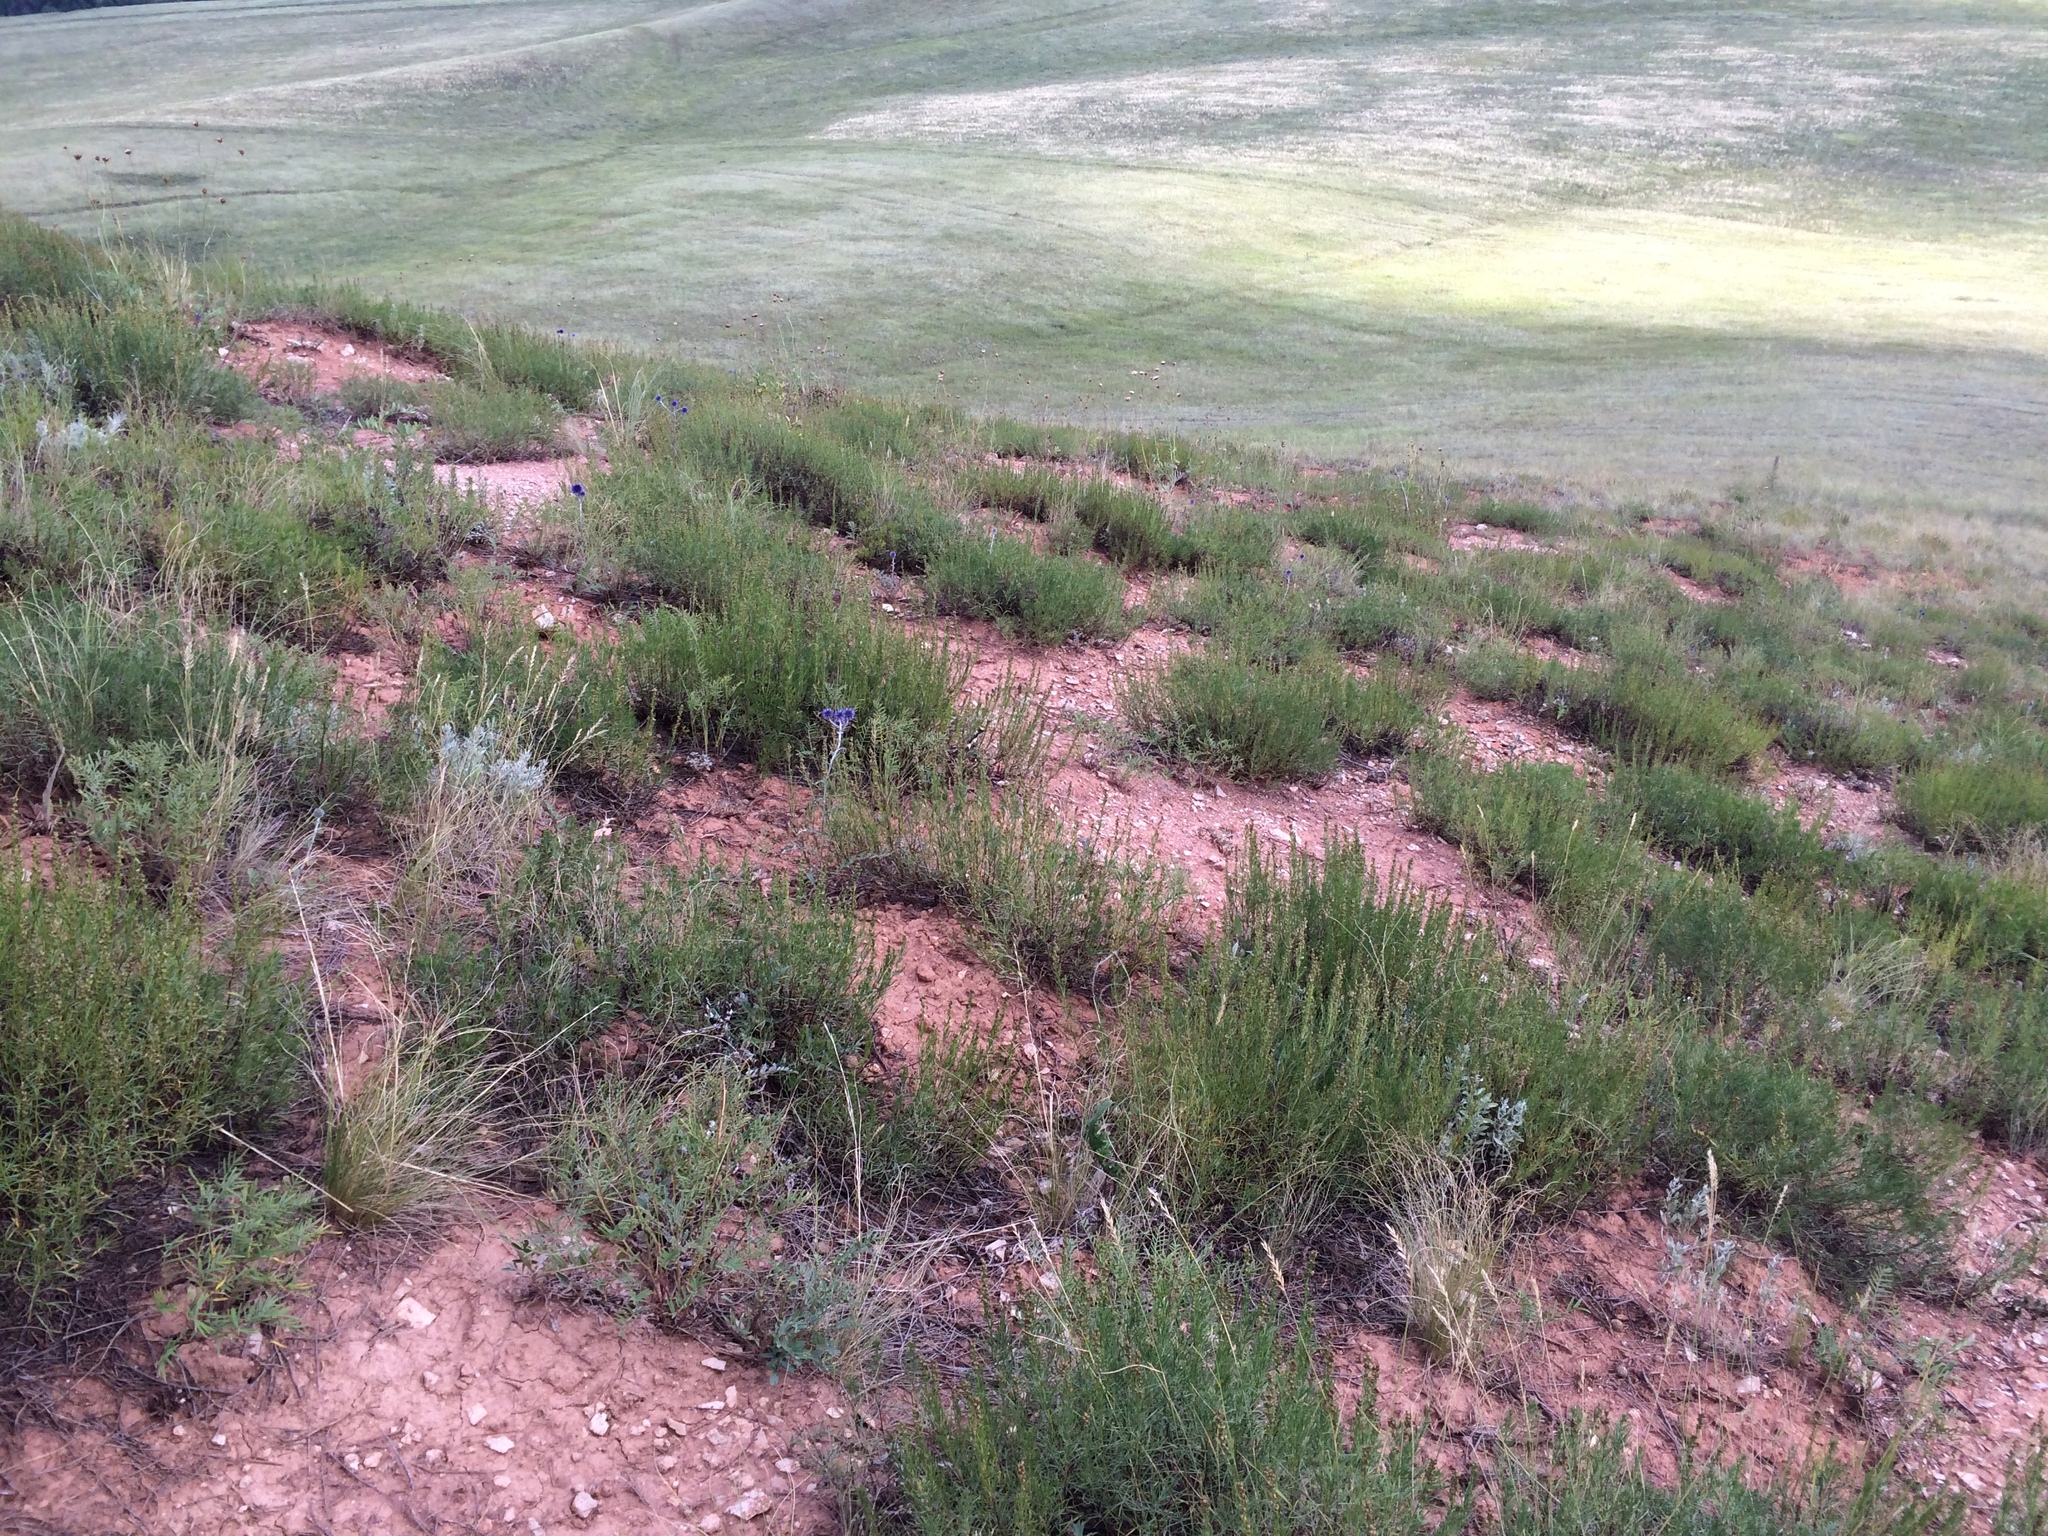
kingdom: Plantae
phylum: Tracheophyta
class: Magnoliopsida
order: Asterales
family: Asteraceae
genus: Artemisia
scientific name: Artemisia salsoloides
